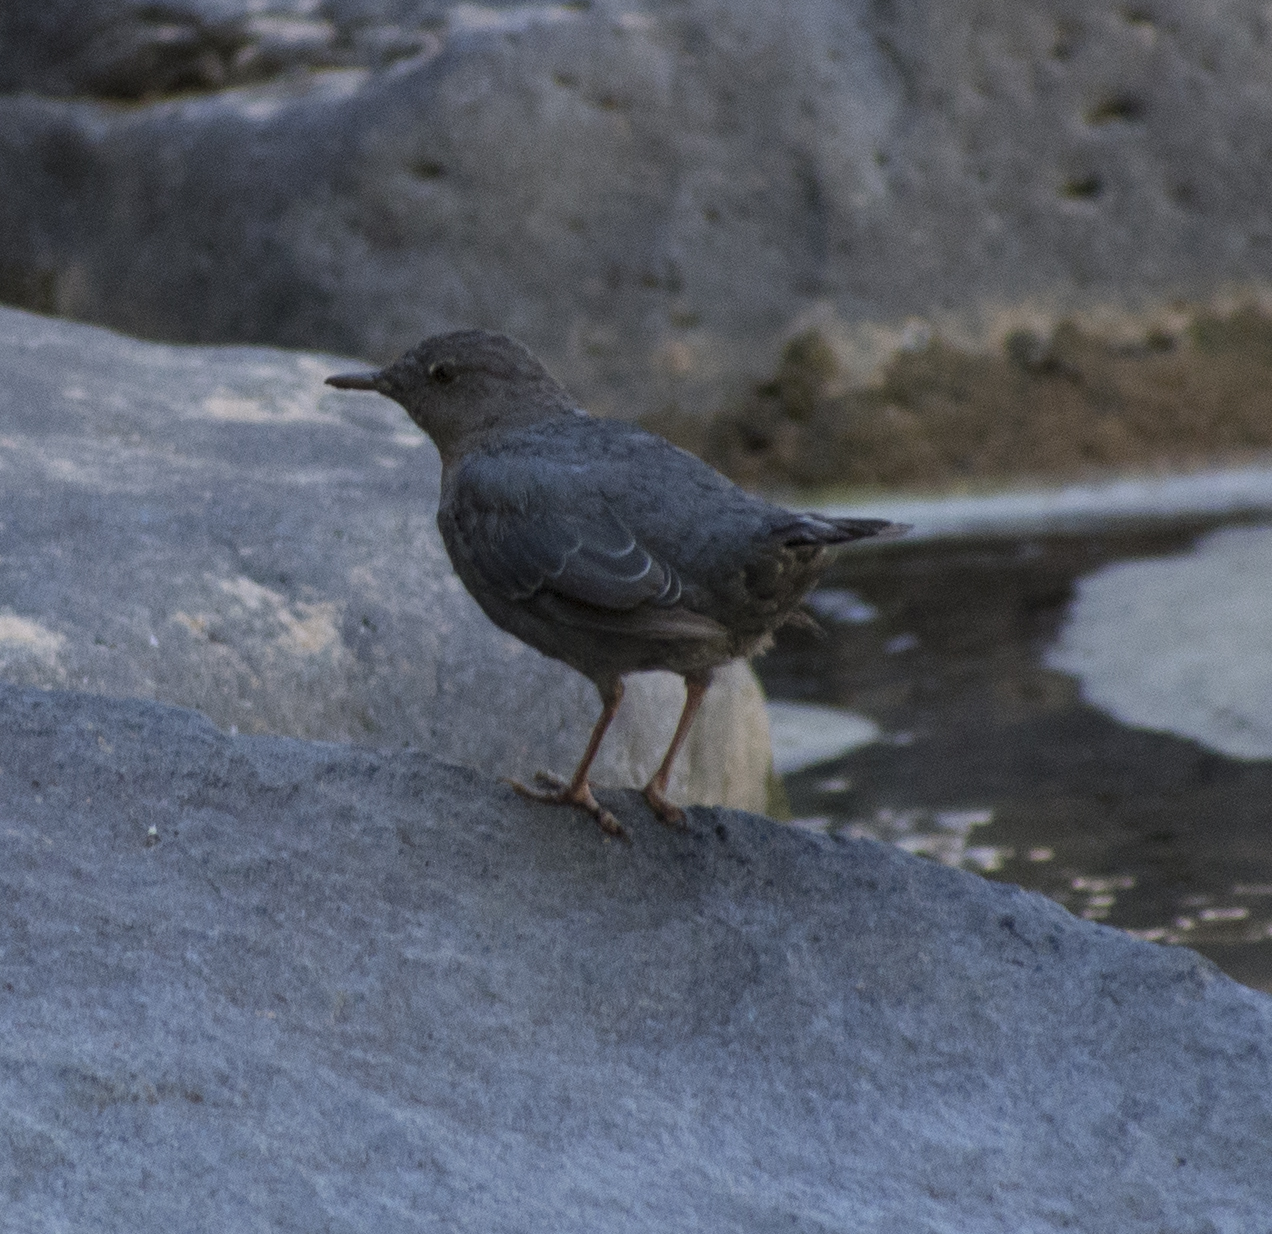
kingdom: Animalia
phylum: Chordata
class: Aves
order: Passeriformes
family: Cinclidae
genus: Cinclus
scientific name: Cinclus mexicanus
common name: American dipper
